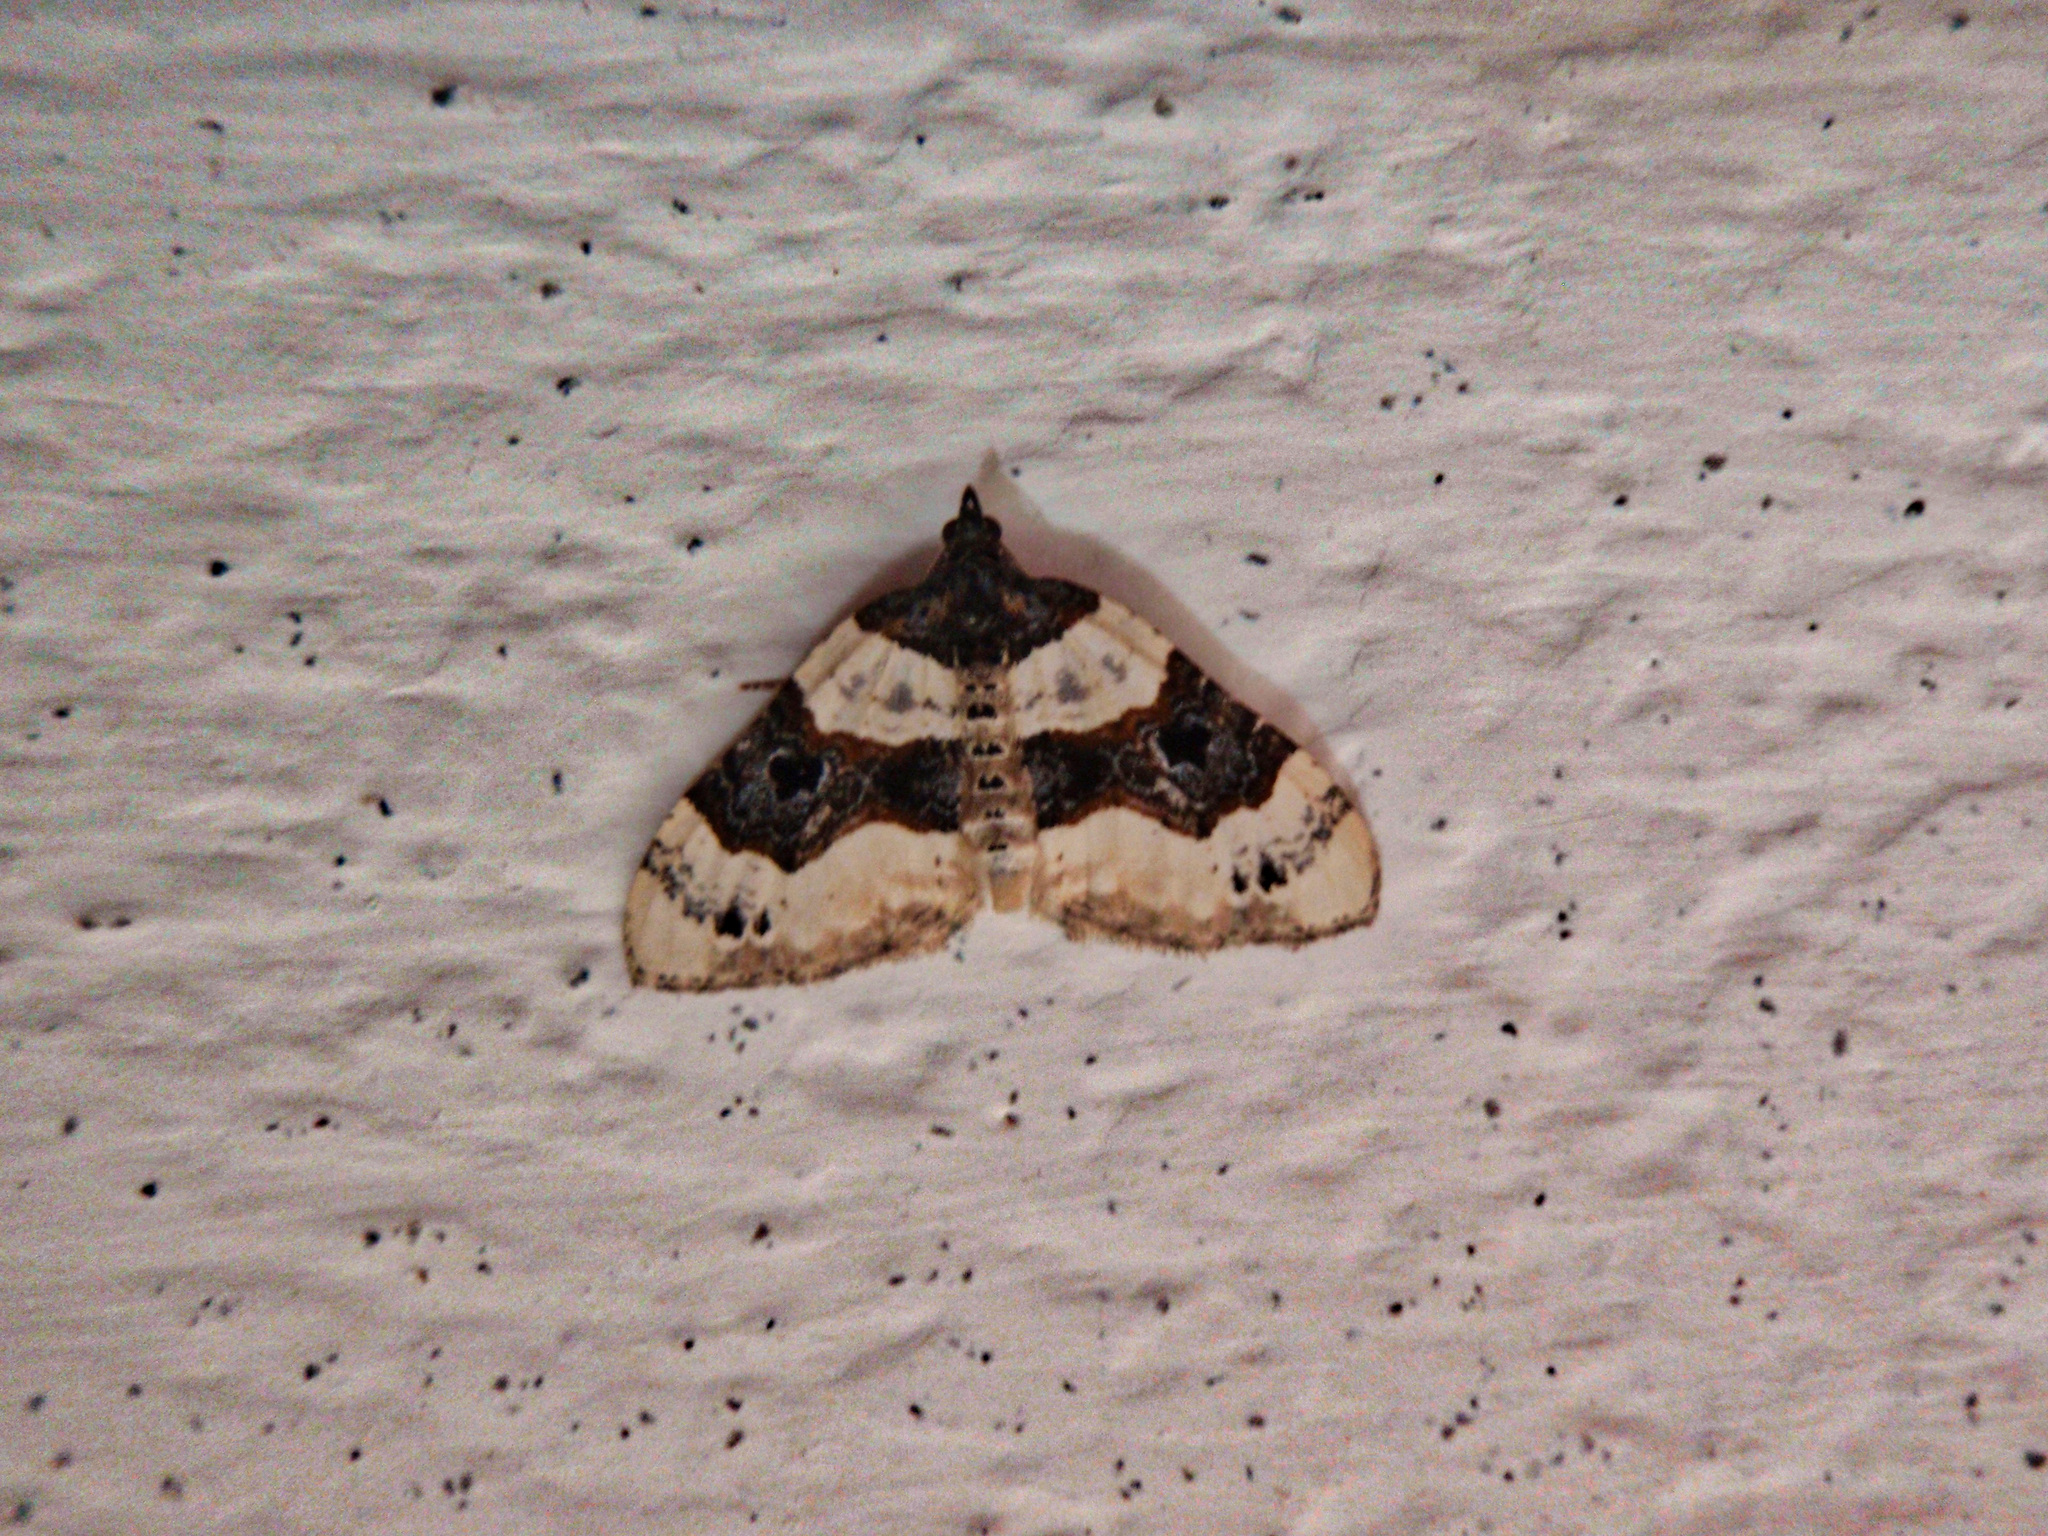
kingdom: Animalia
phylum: Arthropoda
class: Insecta
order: Lepidoptera
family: Geometridae
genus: Cosmorhoe
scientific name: Cosmorhoe ocellata
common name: Purple bar
